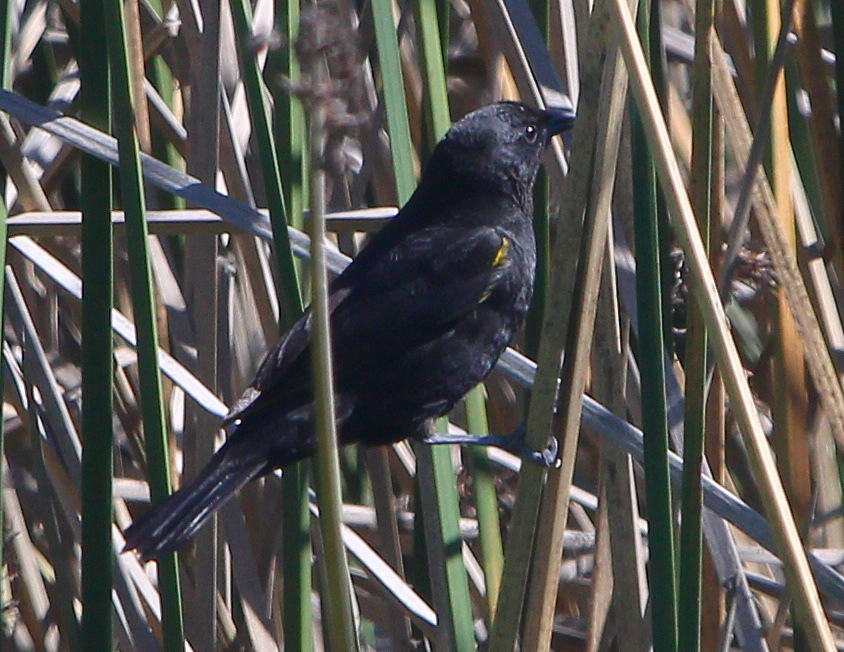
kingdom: Animalia
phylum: Chordata
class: Aves
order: Passeriformes
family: Icteridae
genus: Agelasticus
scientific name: Agelasticus thilius
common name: Yellow-winged blackbird
